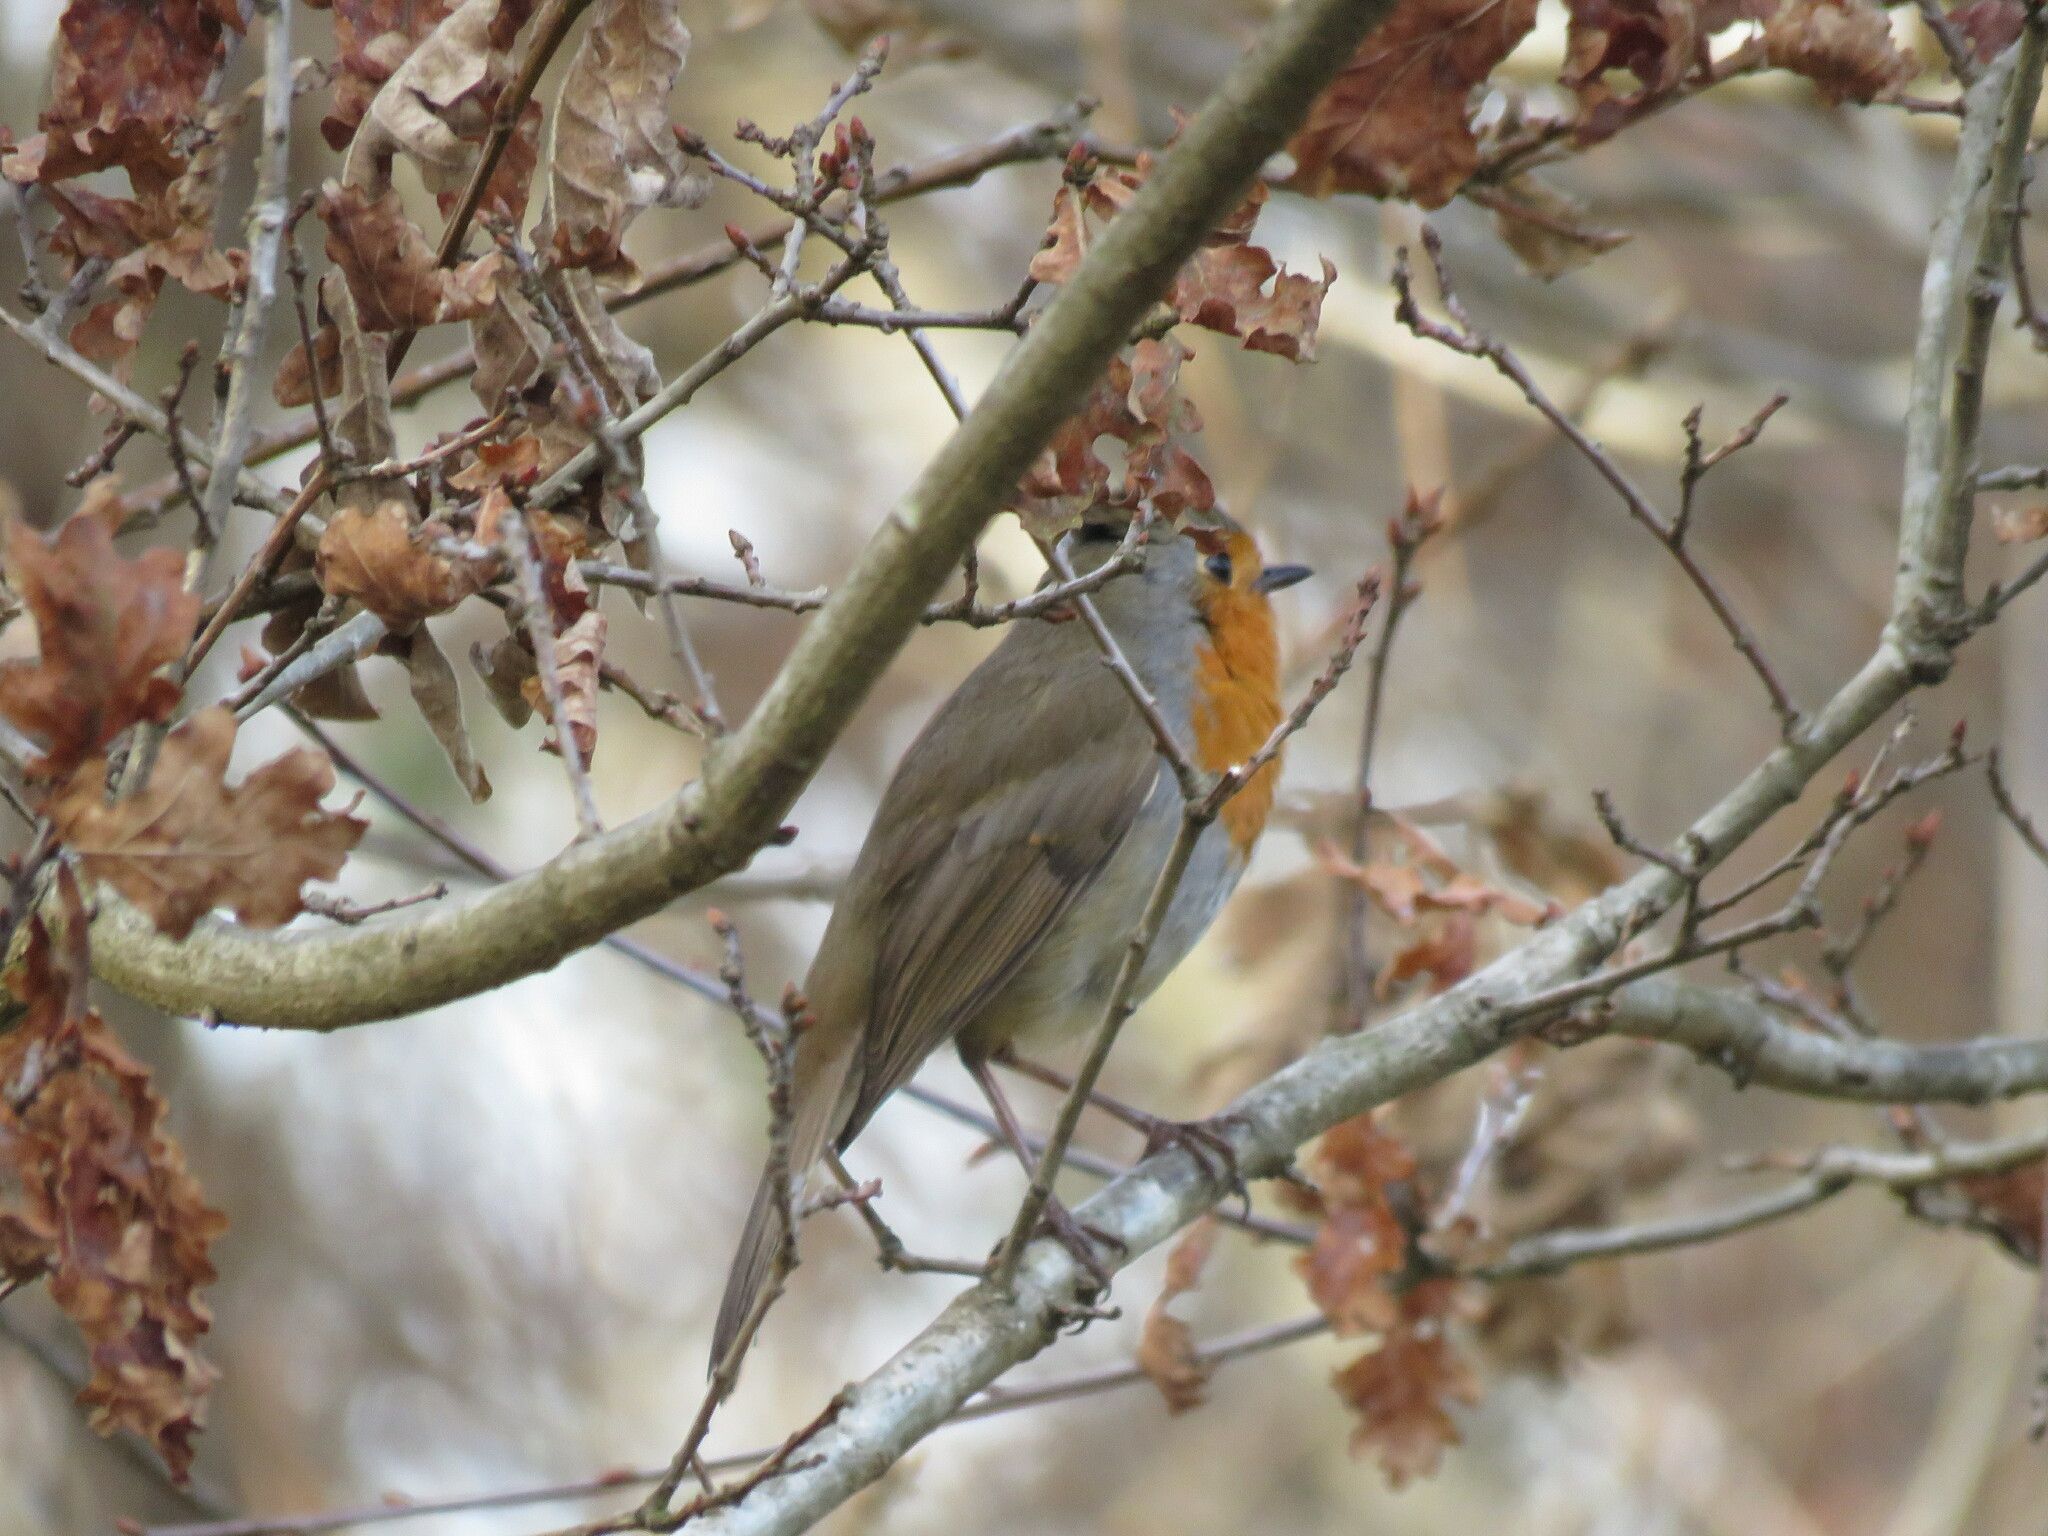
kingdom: Animalia
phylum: Chordata
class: Aves
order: Passeriformes
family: Muscicapidae
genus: Erithacus
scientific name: Erithacus rubecula
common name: European robin
